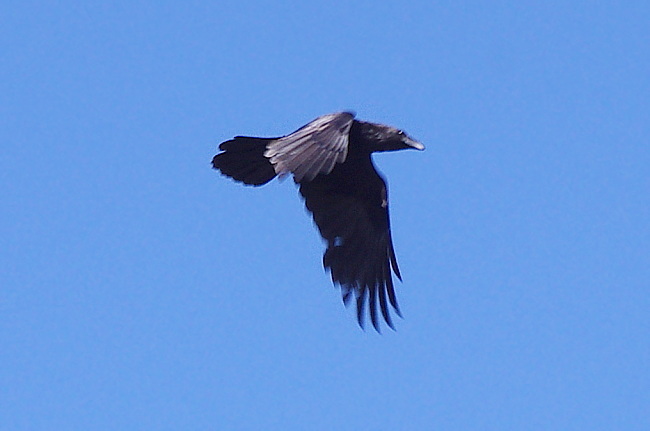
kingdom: Animalia
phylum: Chordata
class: Aves
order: Passeriformes
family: Corvidae
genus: Corvus
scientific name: Corvus corax
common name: Common raven
